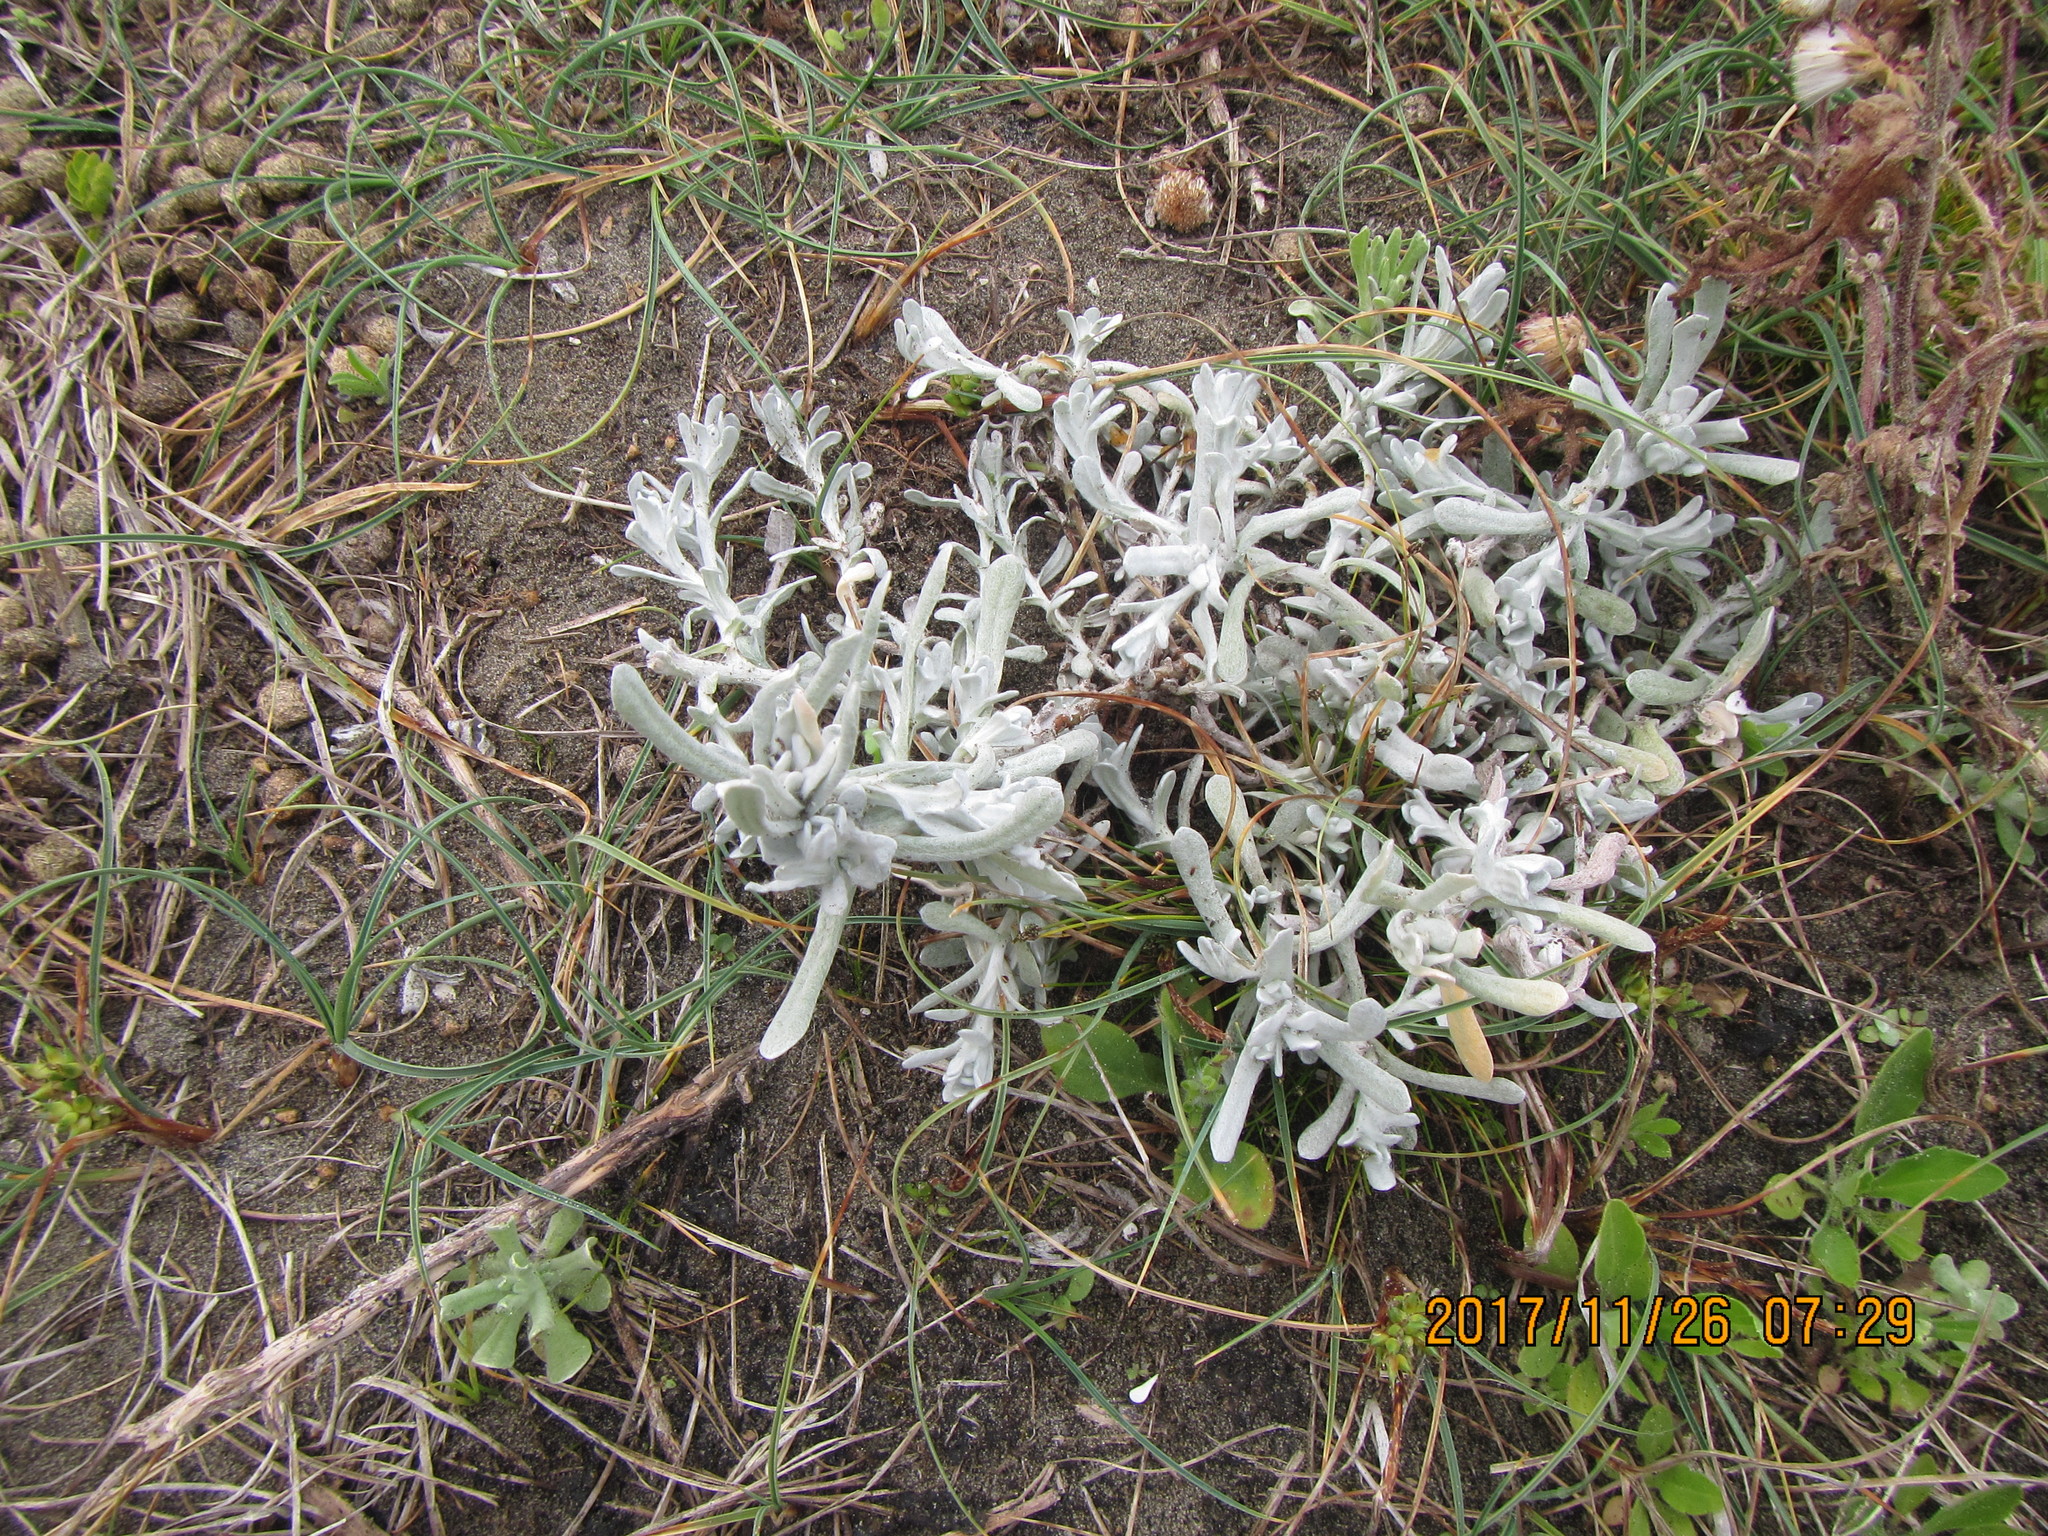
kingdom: Plantae
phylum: Tracheophyta
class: Magnoliopsida
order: Asterales
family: Asteraceae
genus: Helichrysum
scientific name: Helichrysum luteoalbum
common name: Daisy
